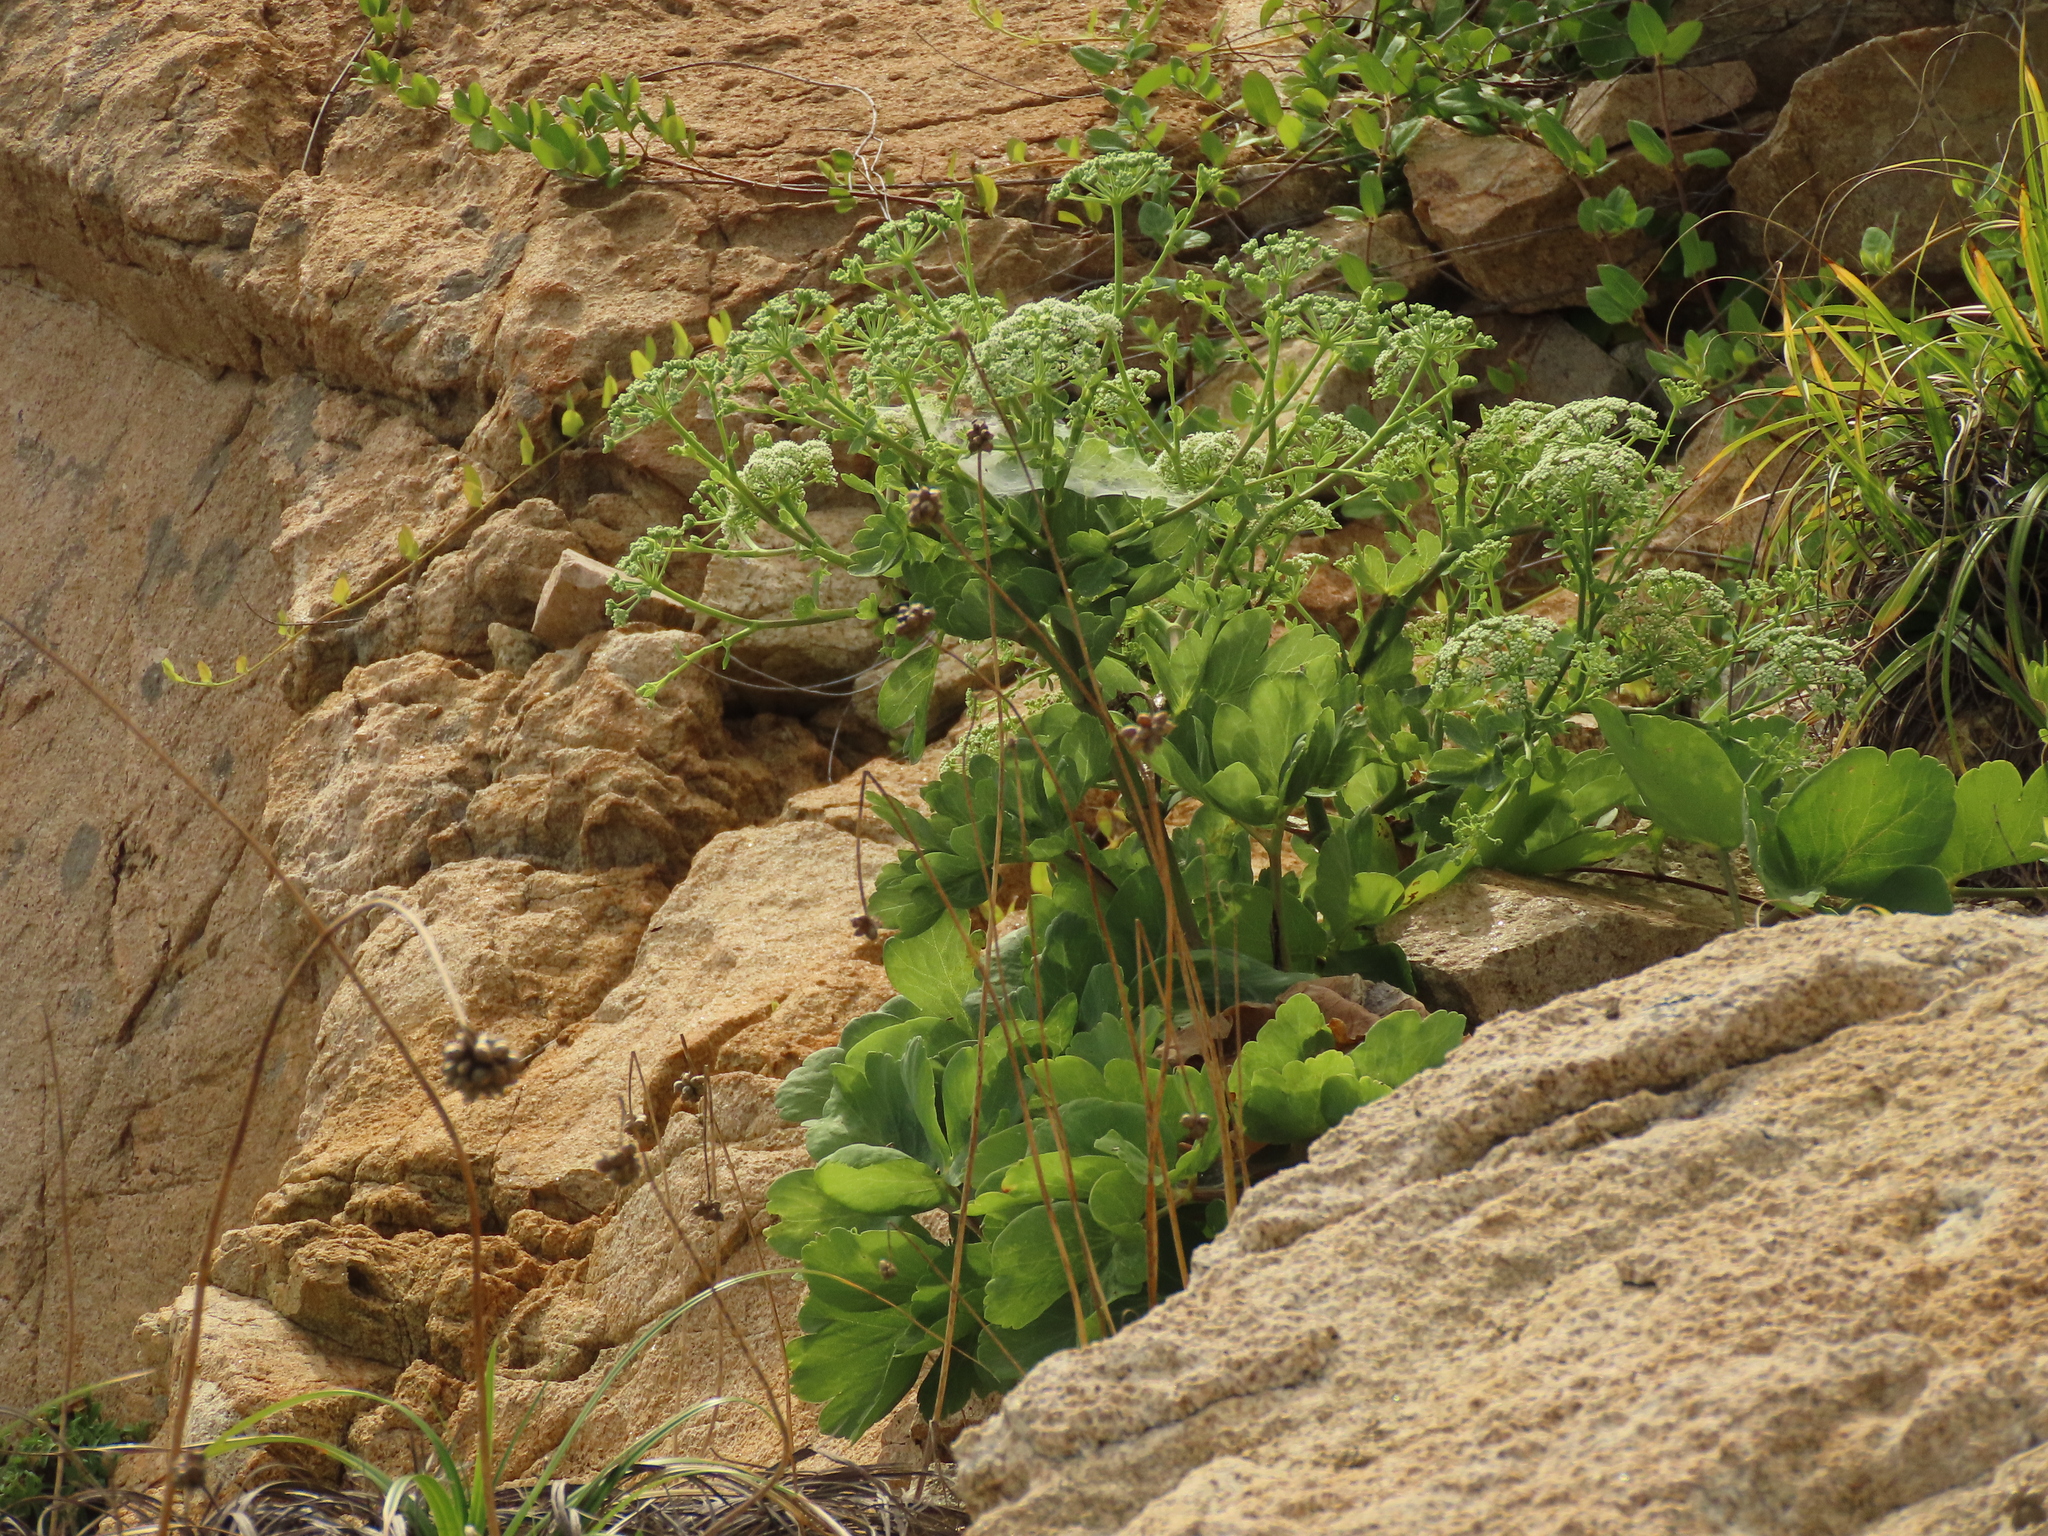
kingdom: Plantae
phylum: Tracheophyta
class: Magnoliopsida
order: Apiales
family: Apiaceae
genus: Peucedanum
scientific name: Peucedanum japonicum
